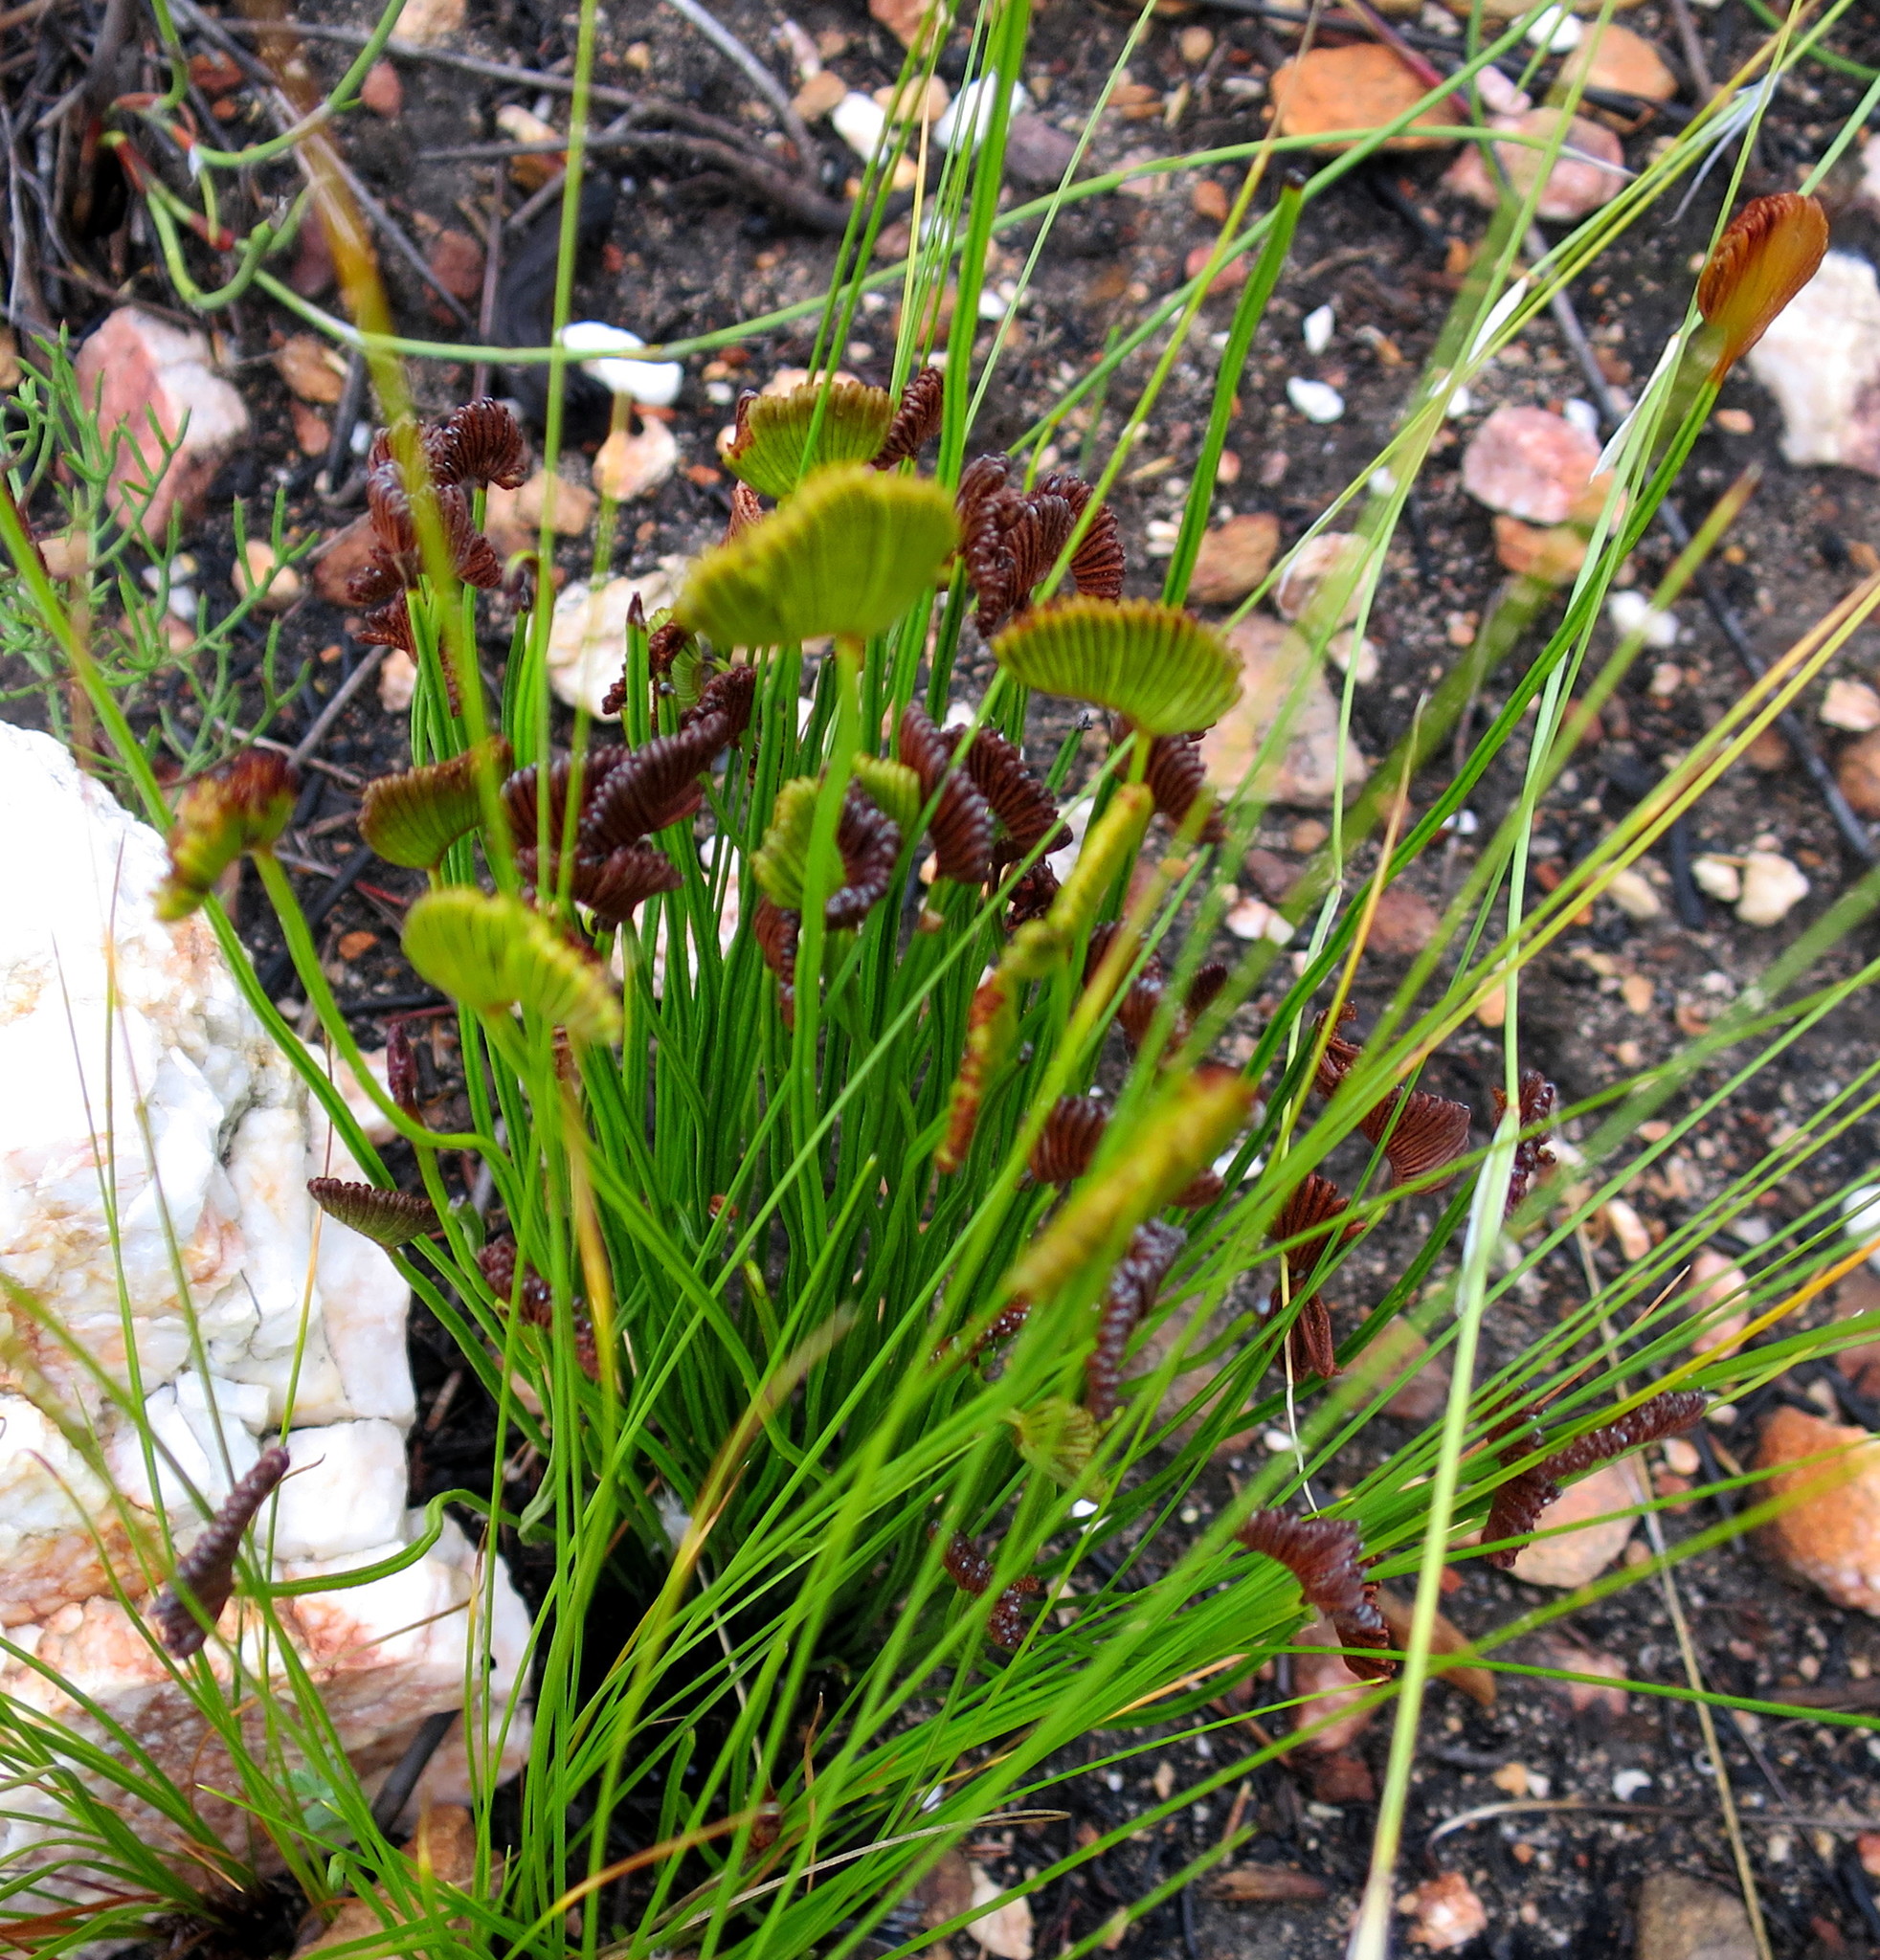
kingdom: Plantae
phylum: Tracheophyta
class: Polypodiopsida
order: Schizaeales
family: Schizaeaceae
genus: Schizaea
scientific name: Schizaea pectinata
